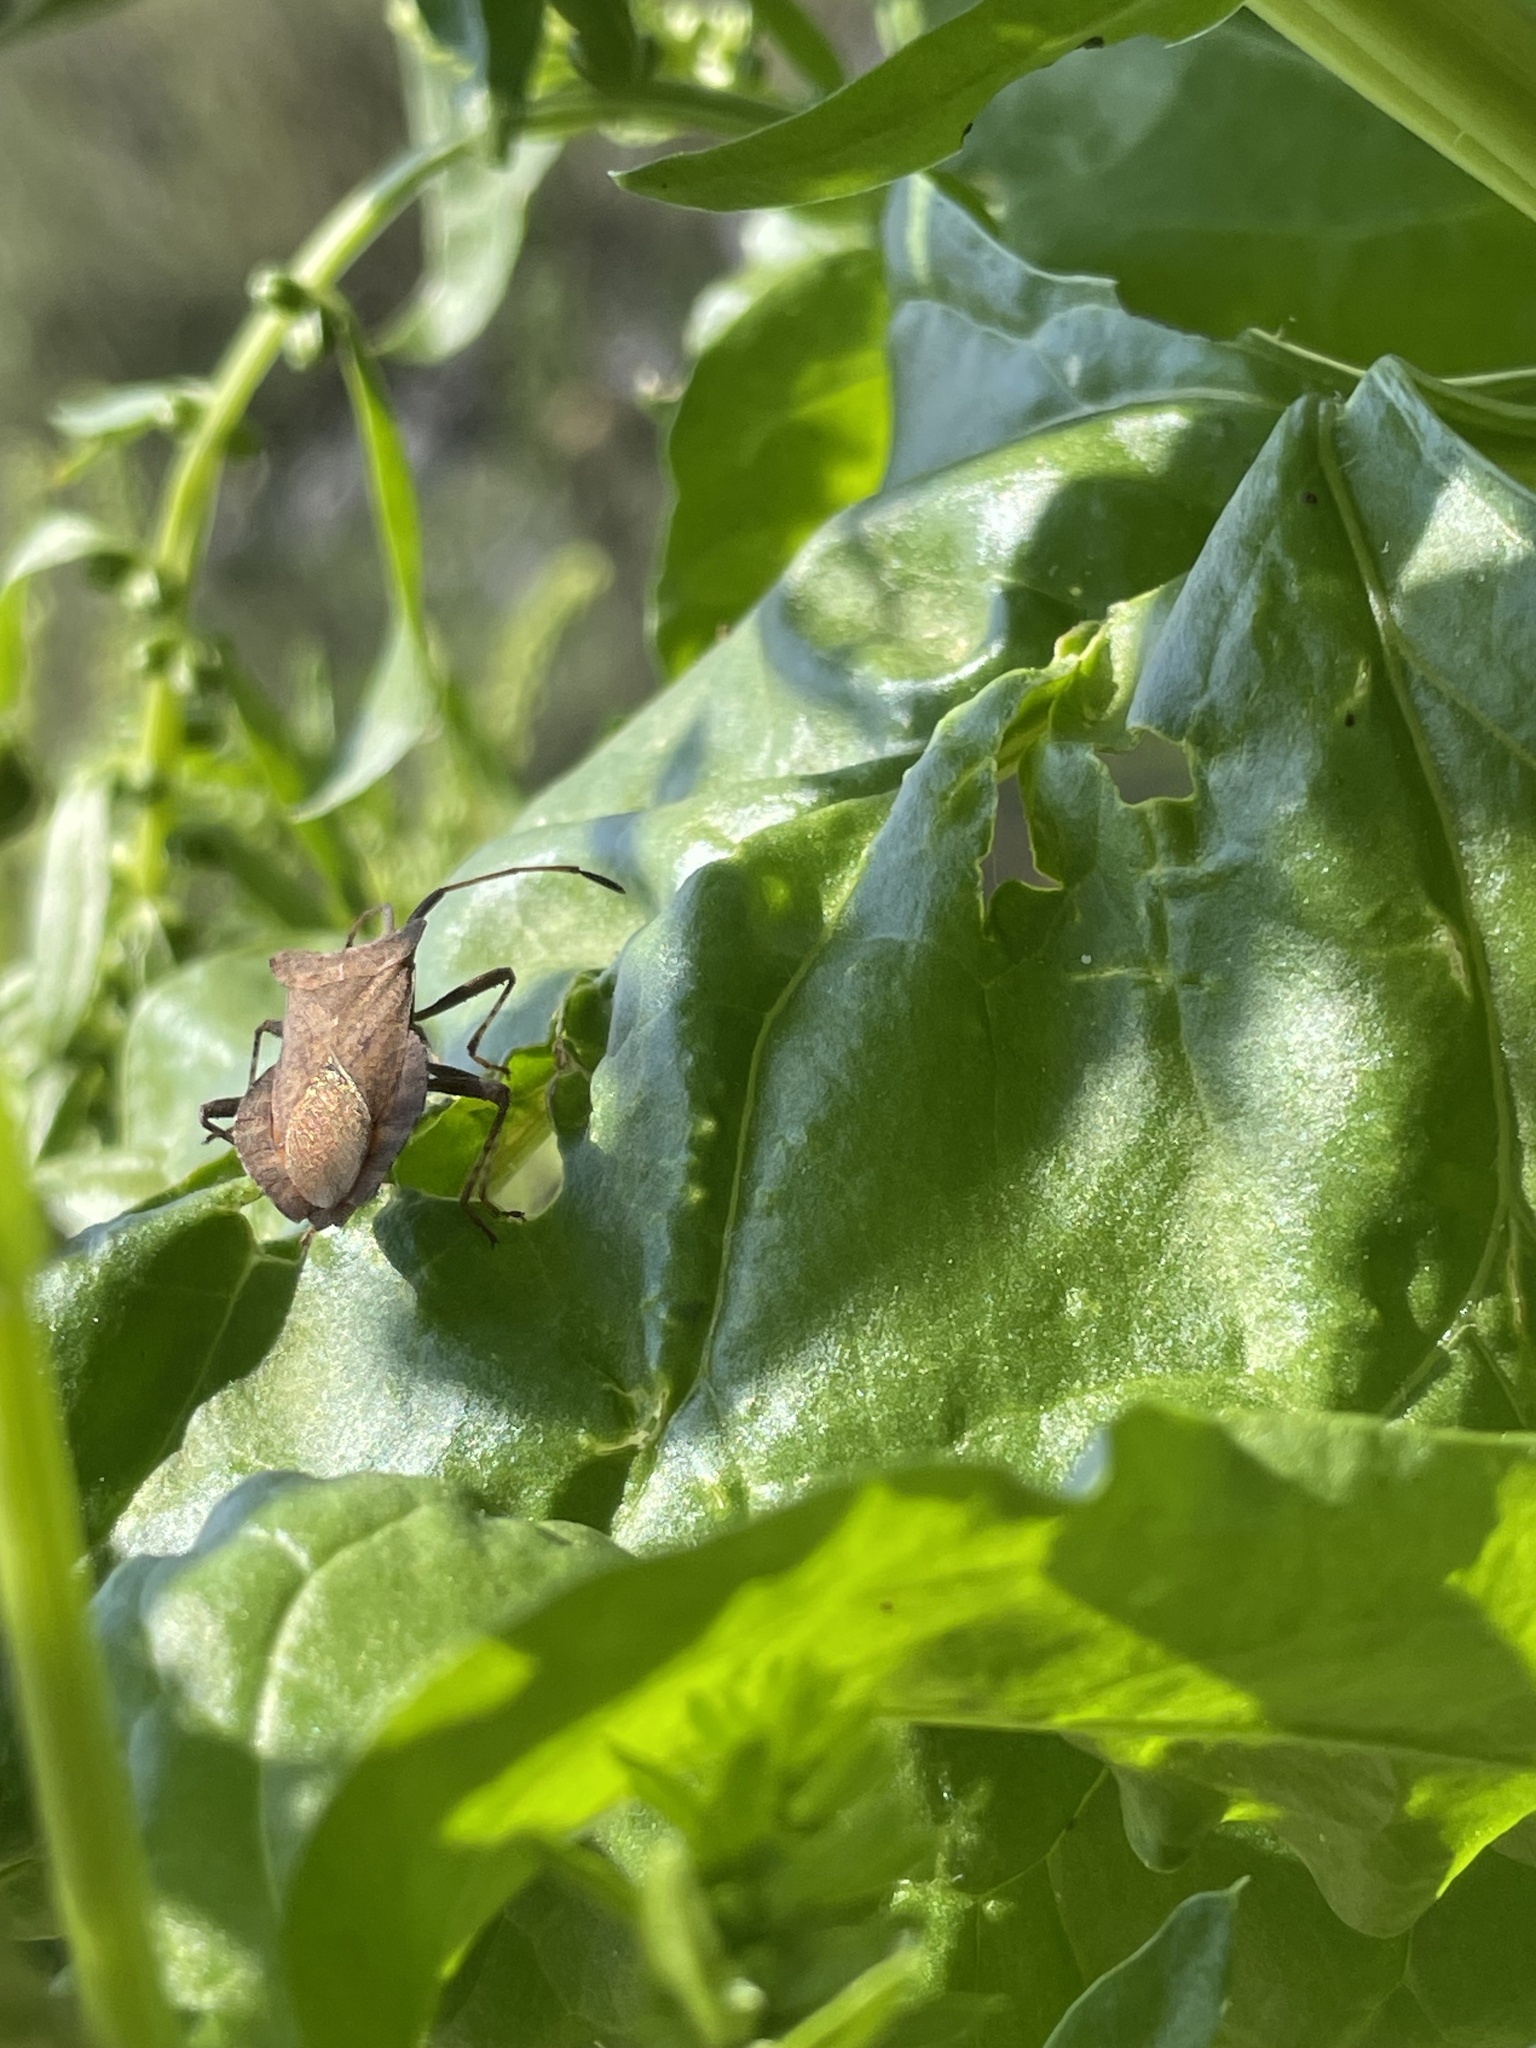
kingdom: Animalia
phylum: Arthropoda
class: Insecta
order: Hemiptera
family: Coreidae
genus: Coreus
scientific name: Coreus marginatus
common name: Dock bug
